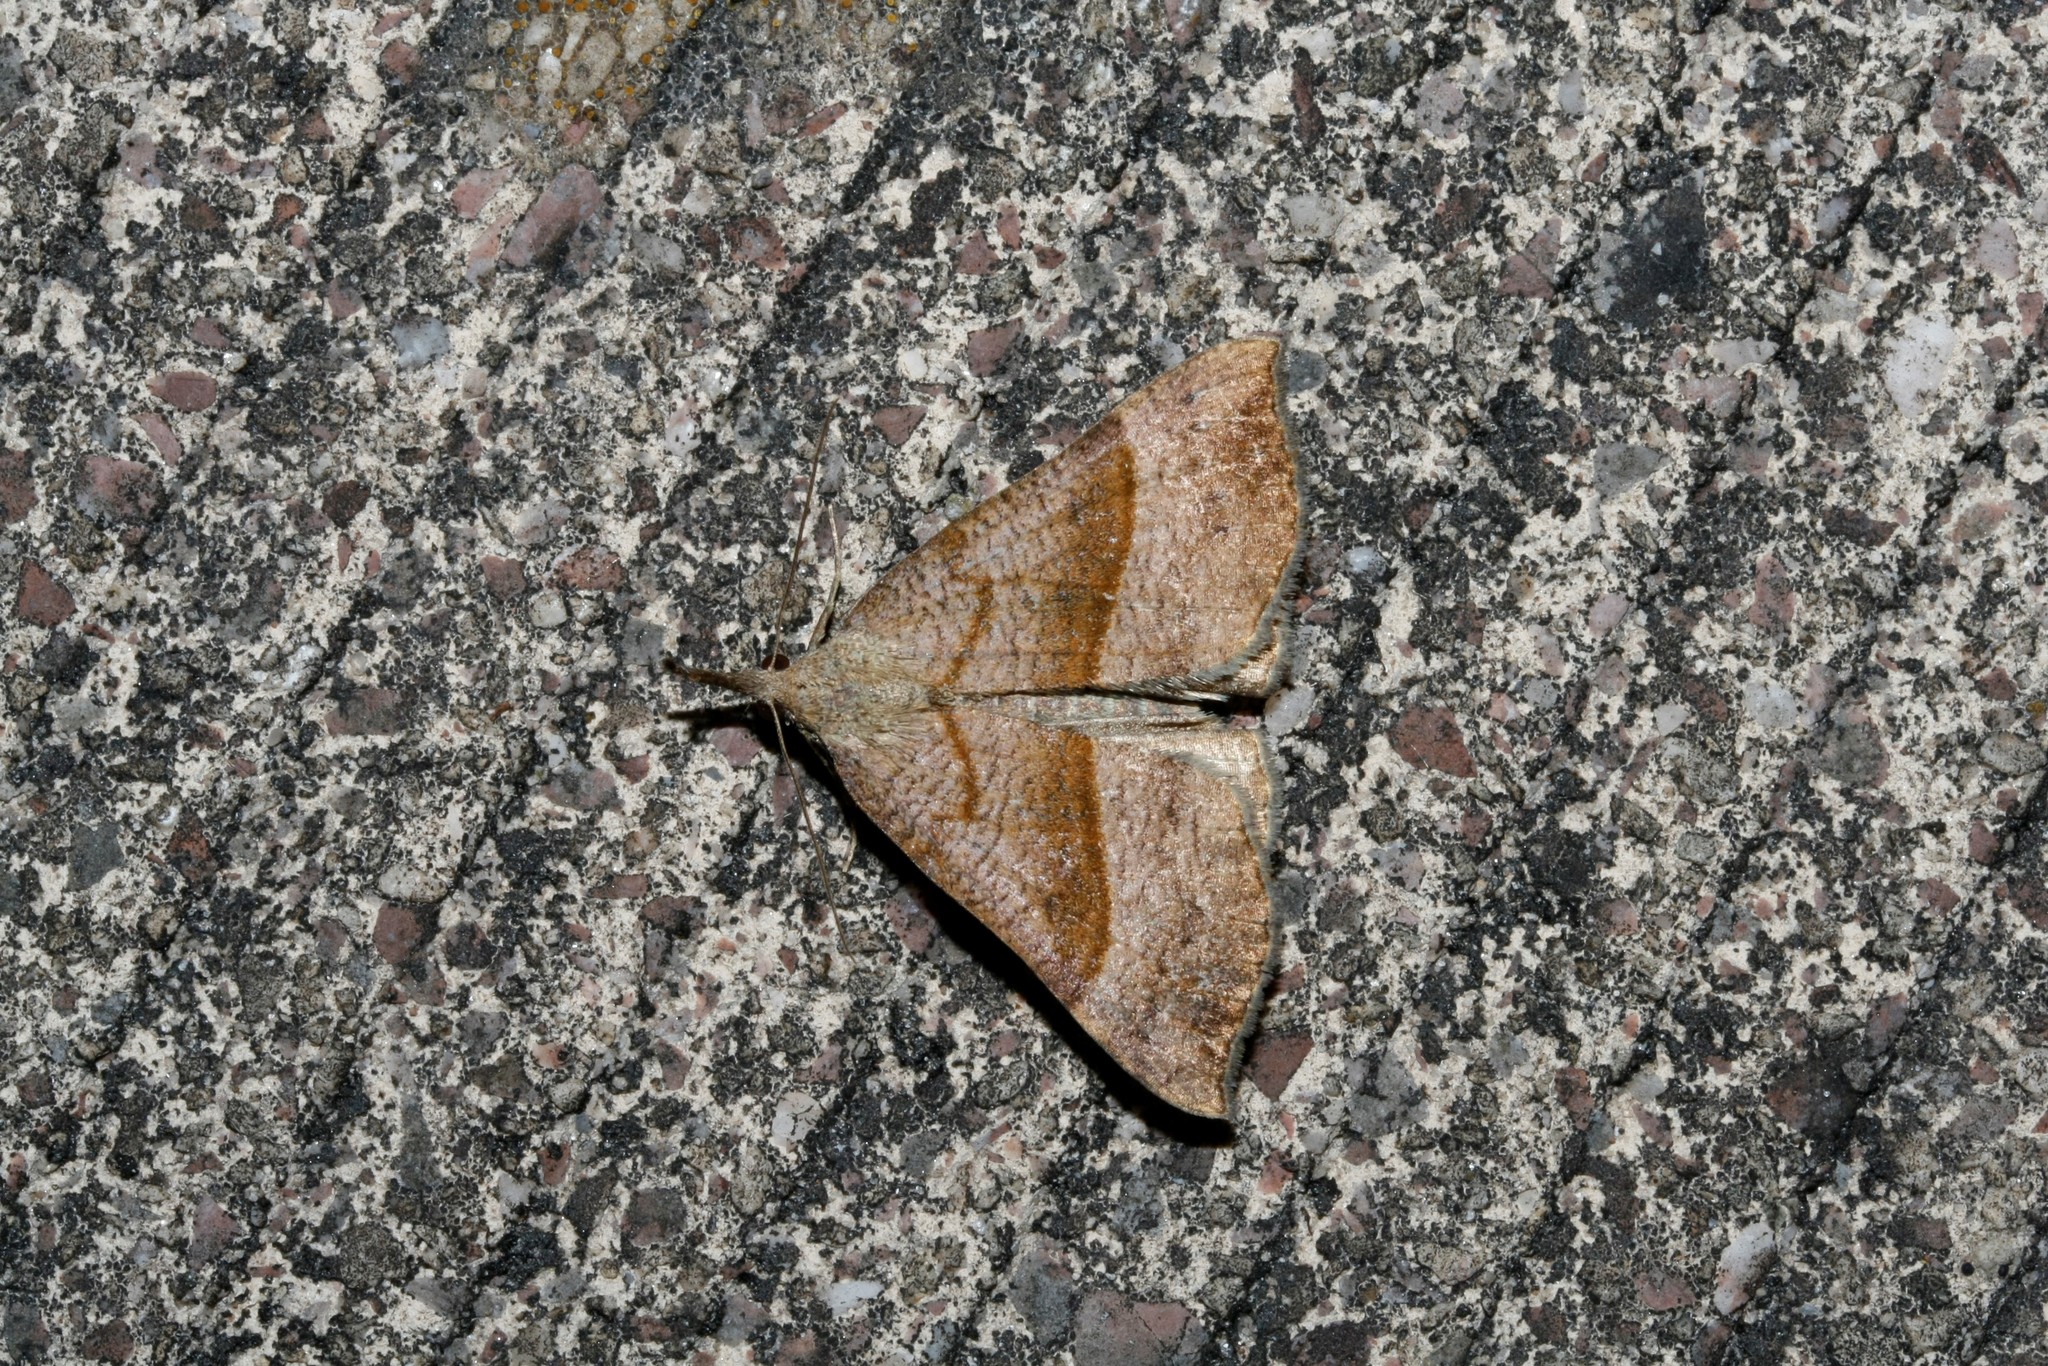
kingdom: Animalia
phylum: Arthropoda
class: Insecta
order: Lepidoptera
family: Erebidae
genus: Hypena
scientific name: Hypena proboscidalis
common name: Snout
